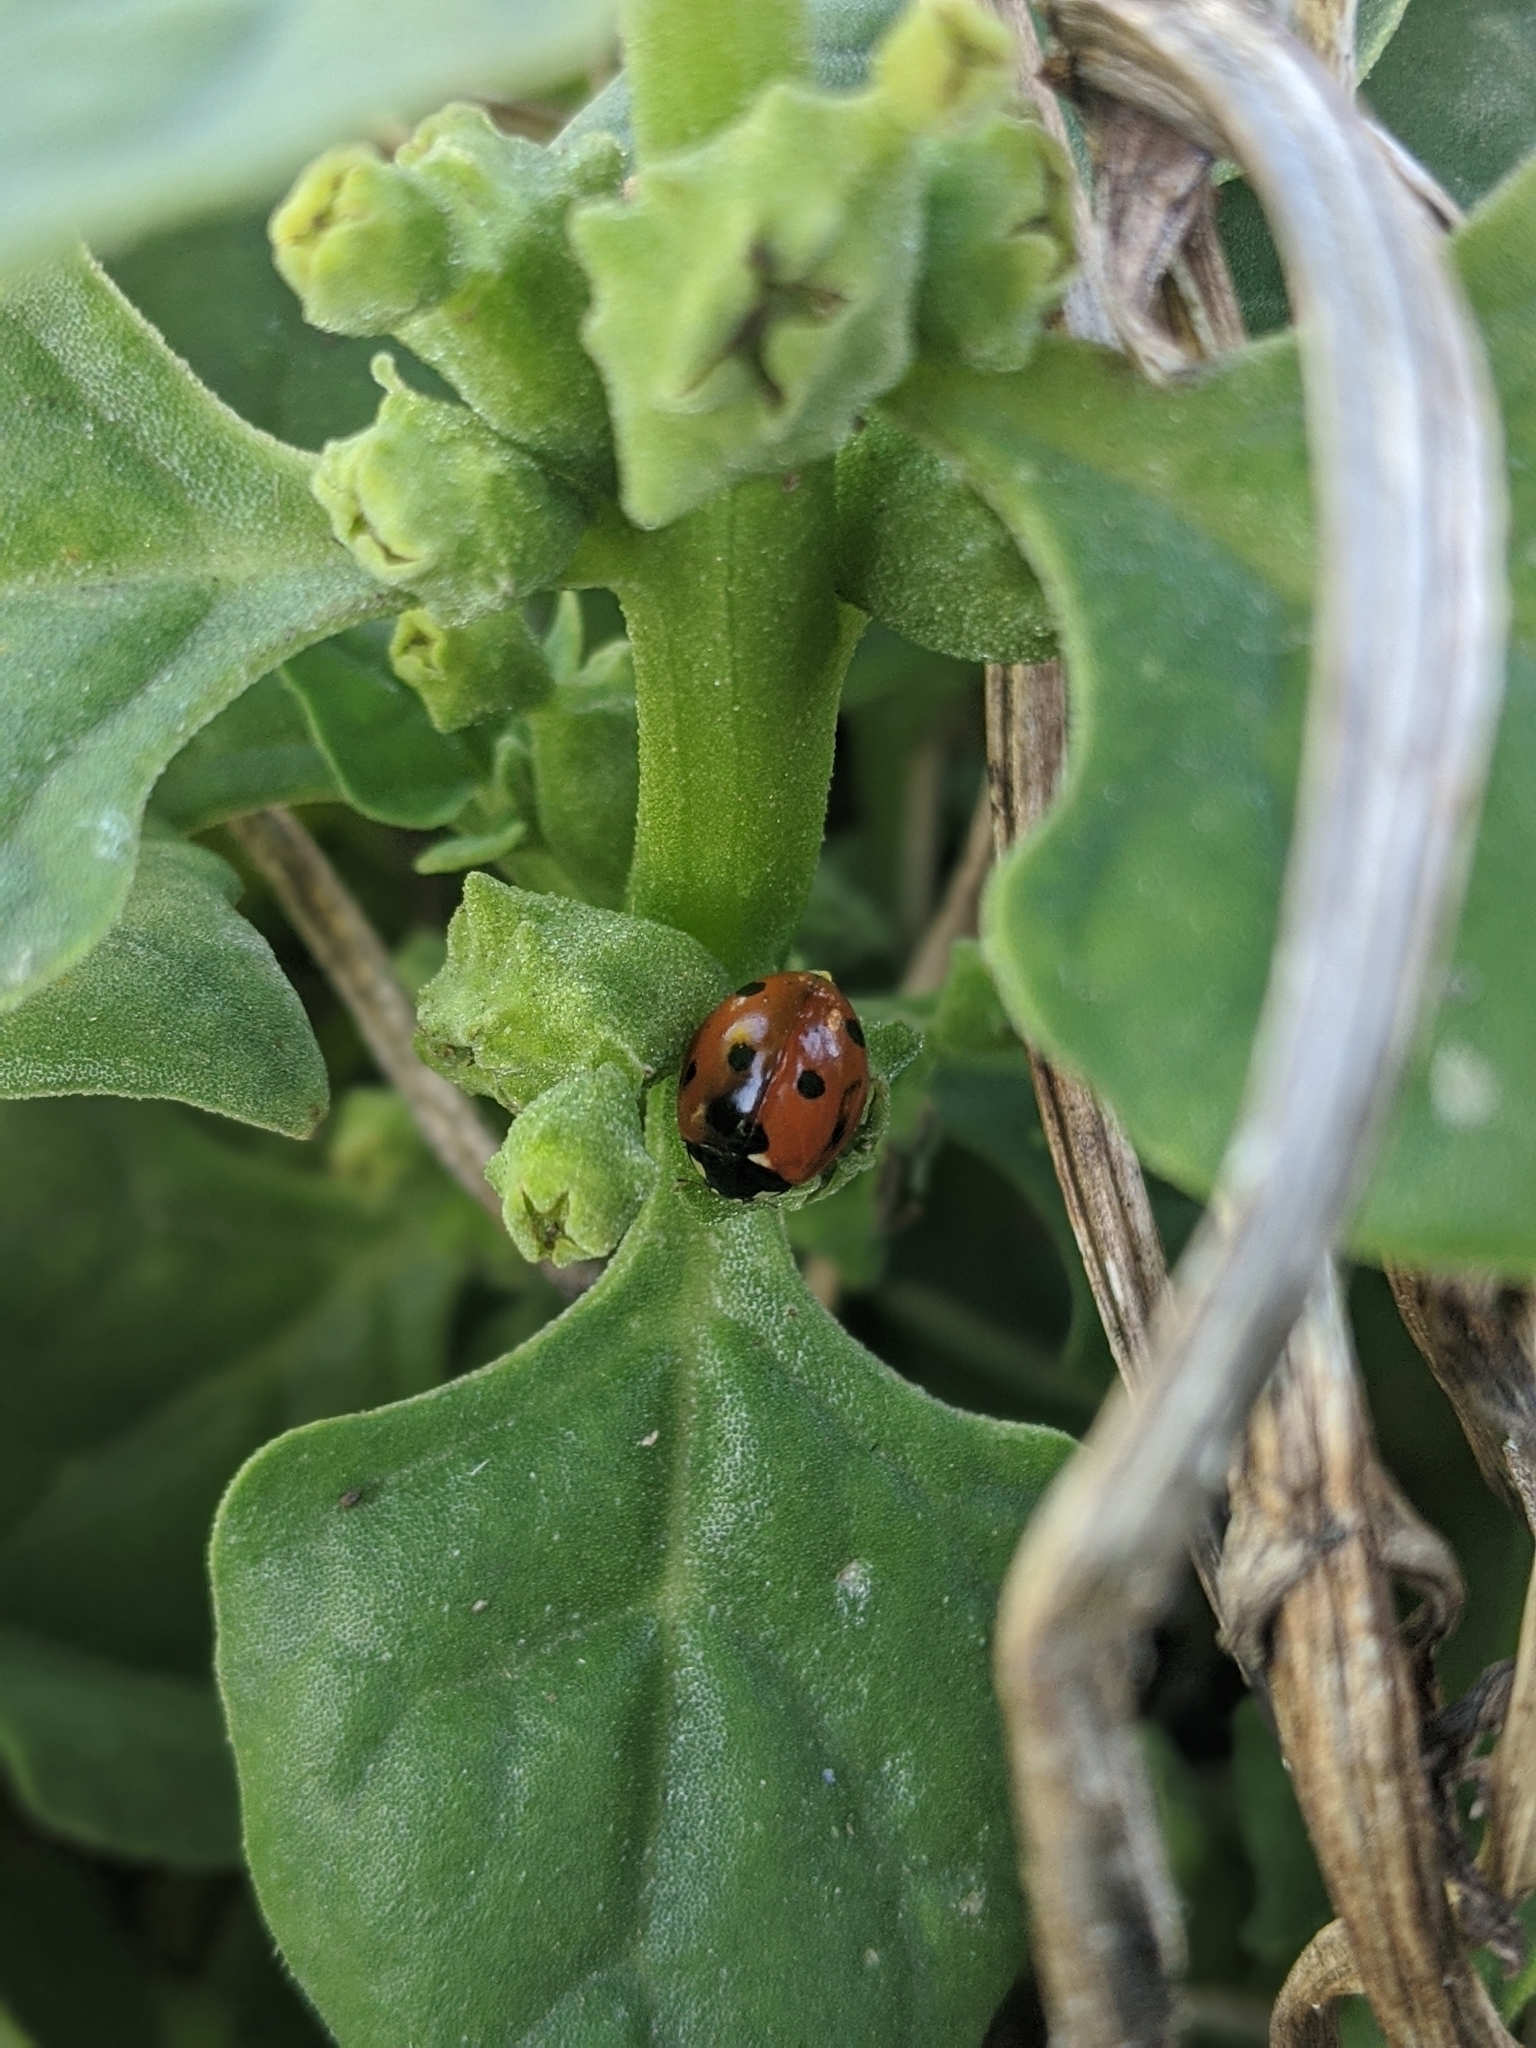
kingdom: Animalia
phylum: Arthropoda
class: Insecta
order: Coleoptera
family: Coccinellidae
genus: Coccinella
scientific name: Coccinella septempunctata
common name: Sevenspotted lady beetle
